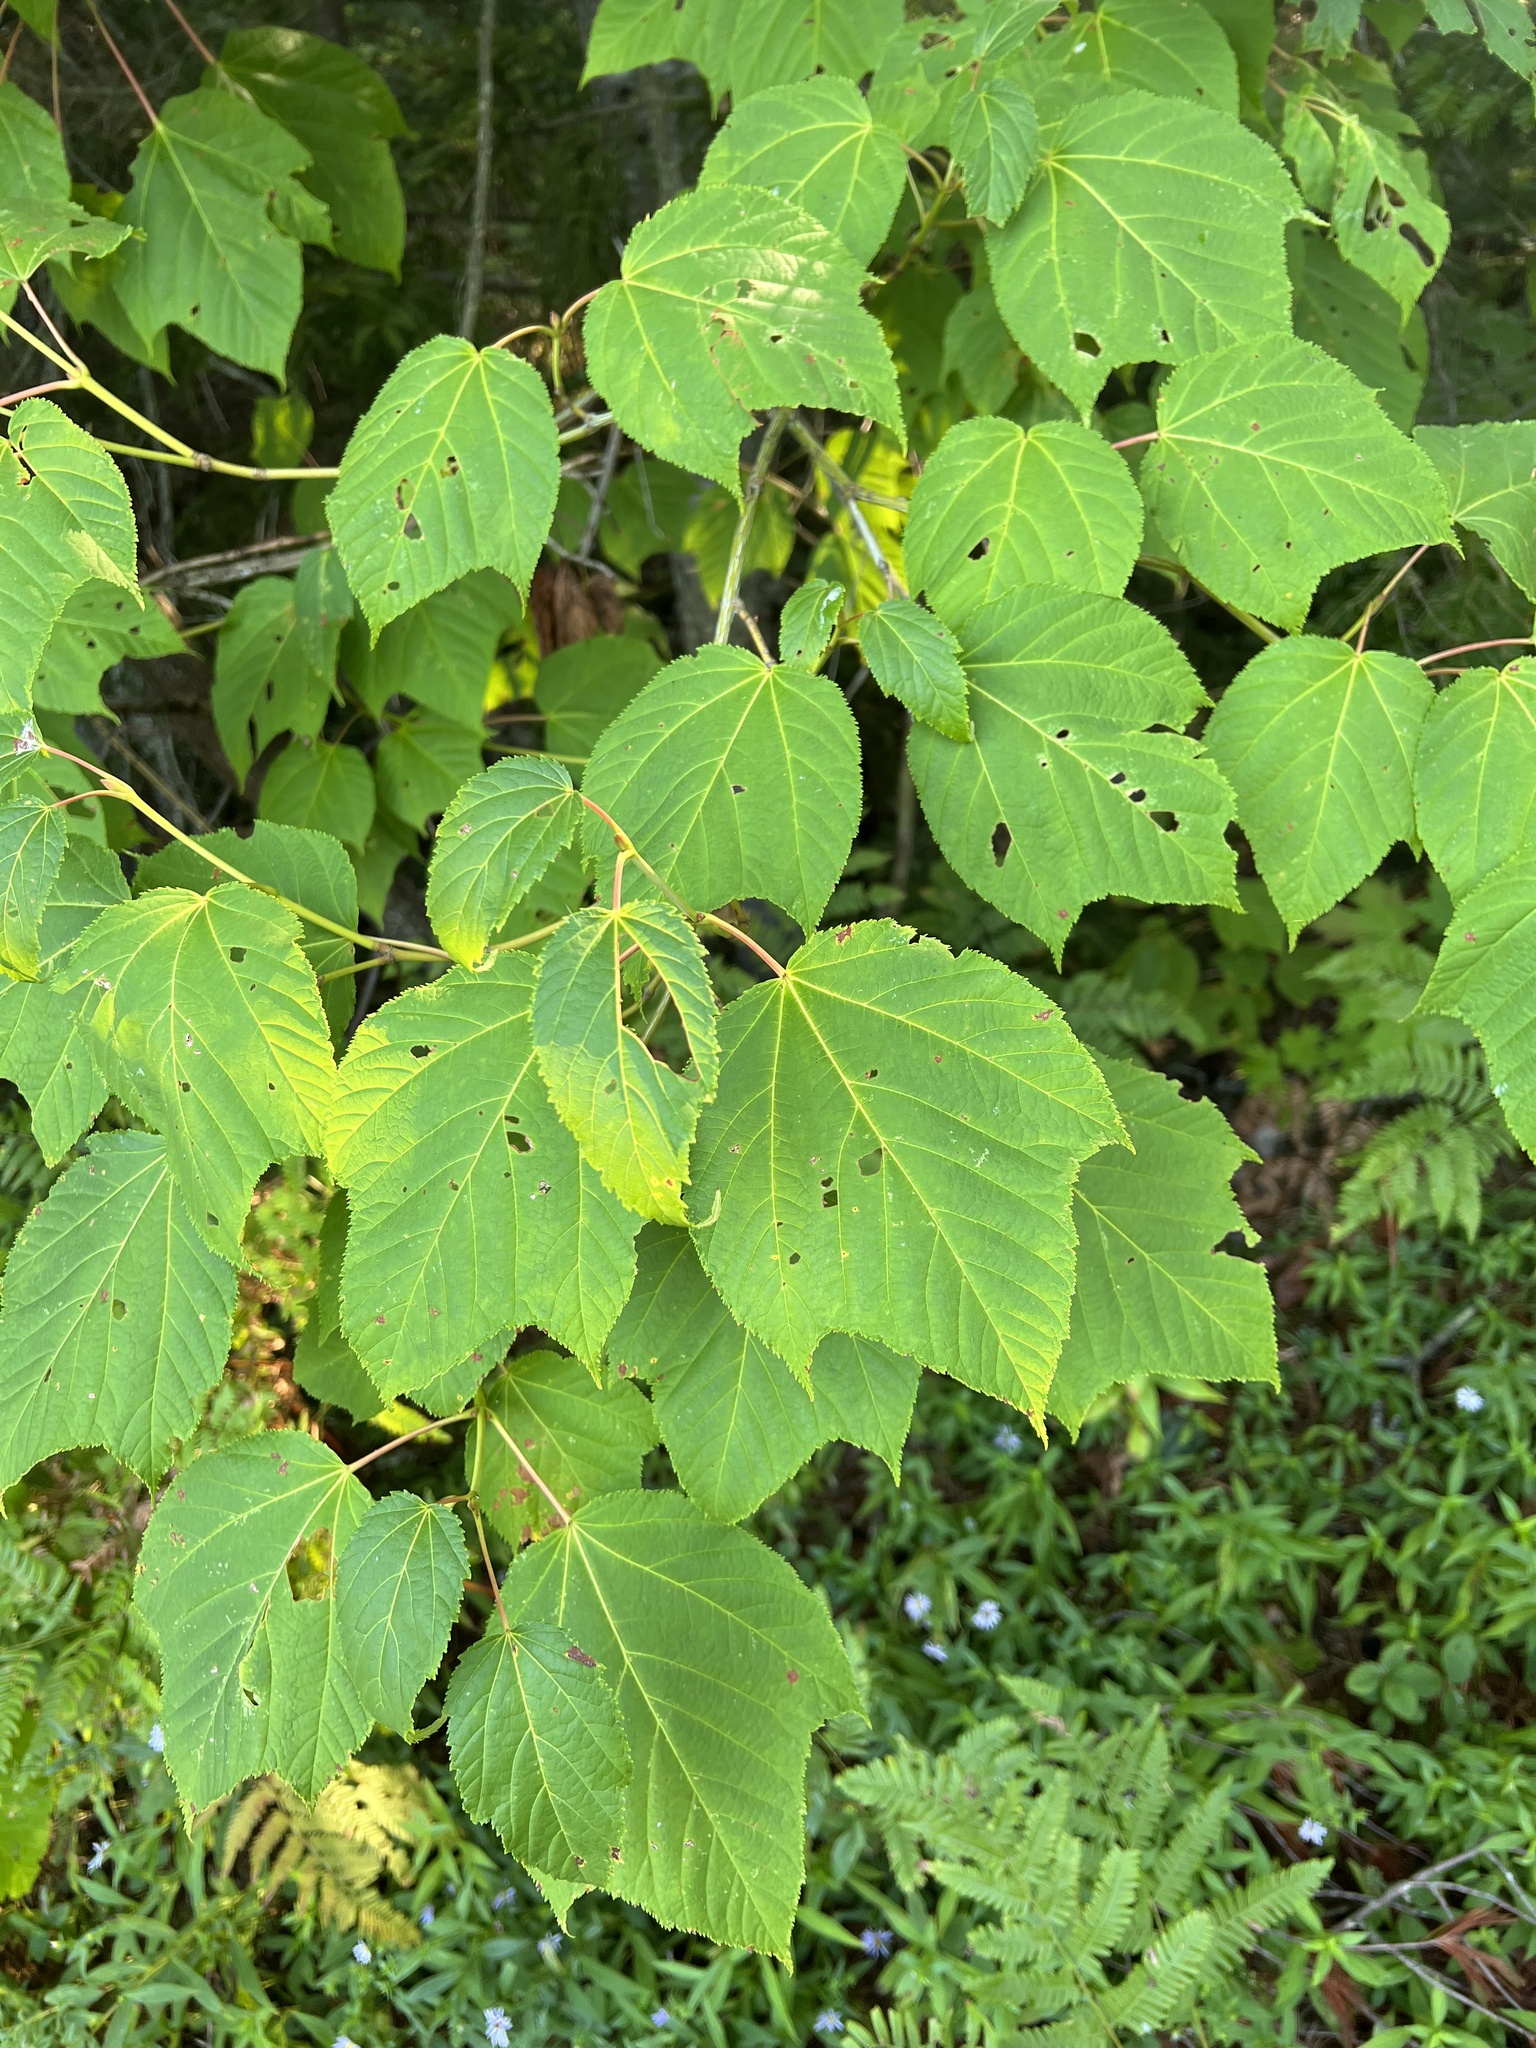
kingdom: Plantae
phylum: Tracheophyta
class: Magnoliopsida
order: Sapindales
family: Sapindaceae
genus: Acer
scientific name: Acer pensylvanicum
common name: Moosewood
